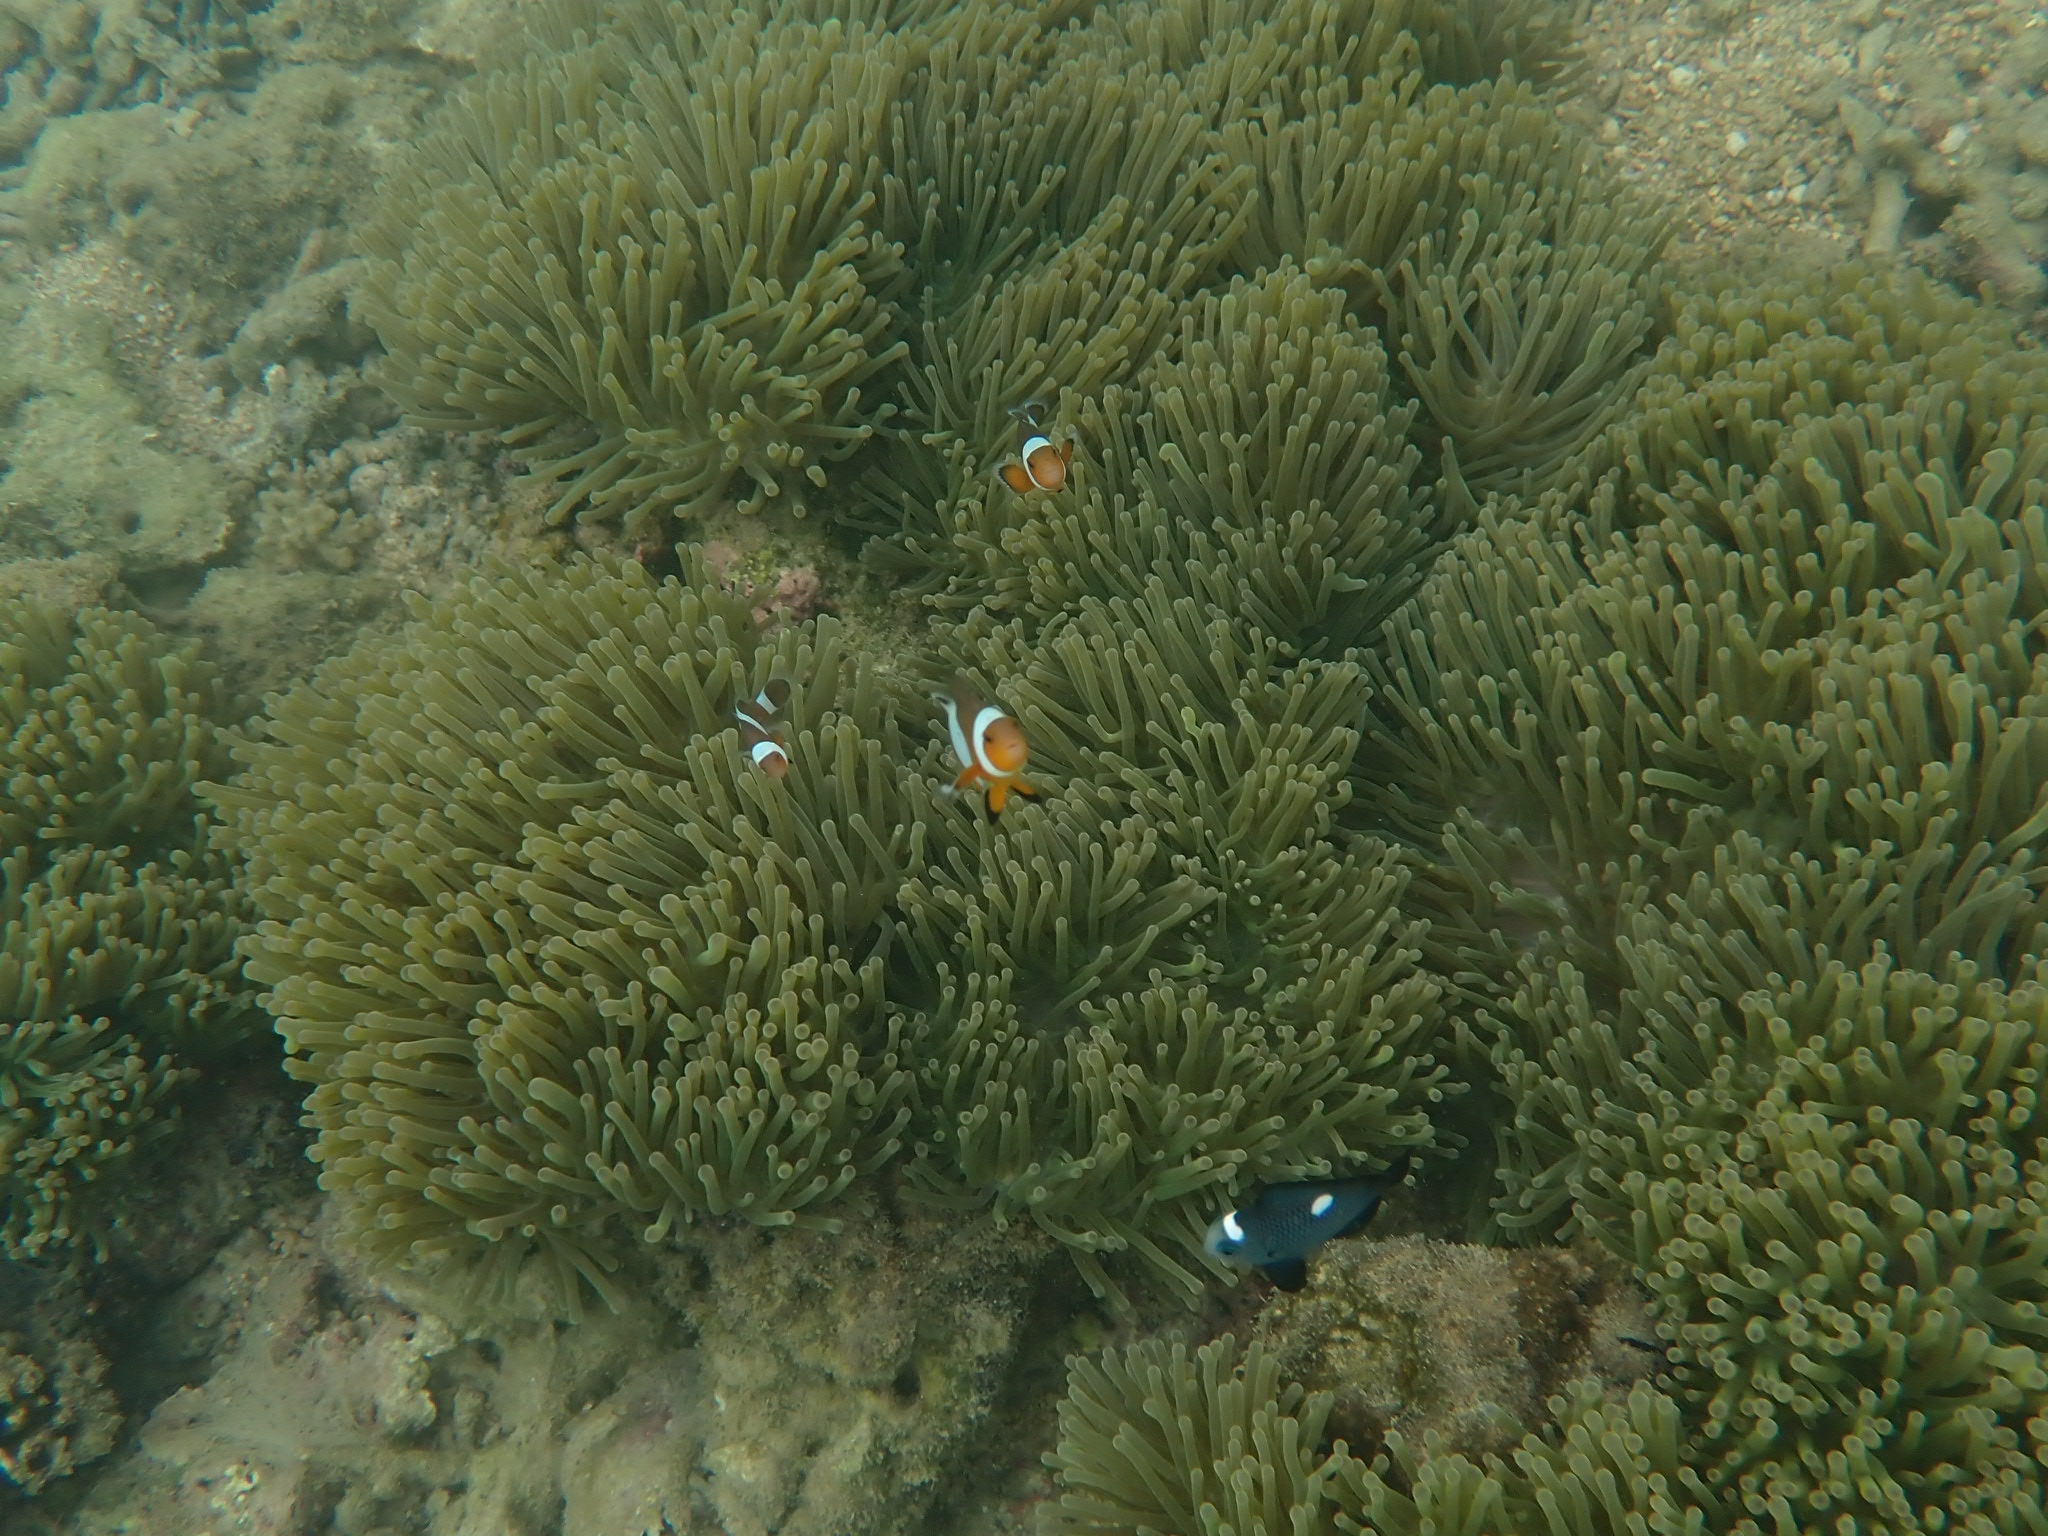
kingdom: Animalia
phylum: Chordata
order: Perciformes
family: Pomacentridae
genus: Amphiprion
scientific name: Amphiprion ocellaris
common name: Clown anemonefish
